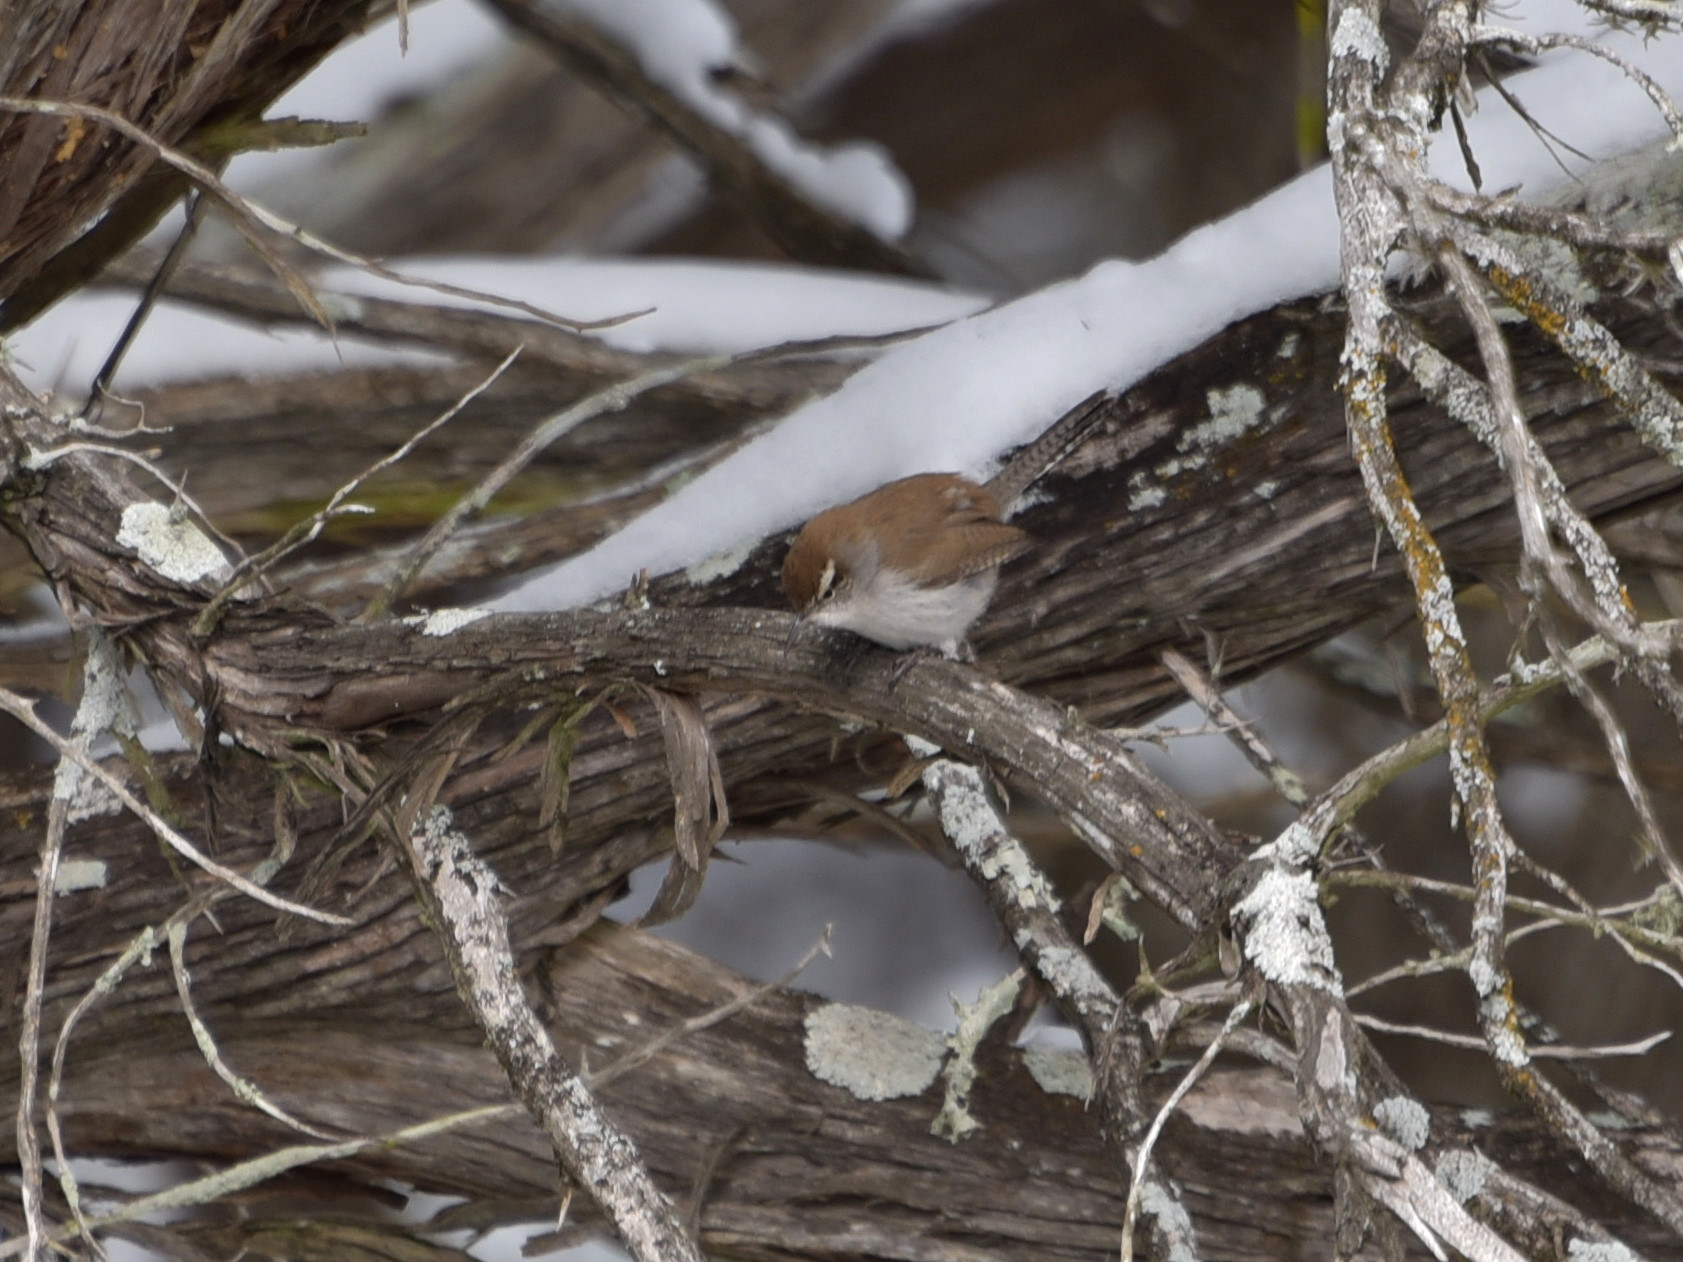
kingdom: Animalia
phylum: Chordata
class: Aves
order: Passeriformes
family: Troglodytidae
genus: Thryomanes
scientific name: Thryomanes bewickii
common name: Bewick's wren
